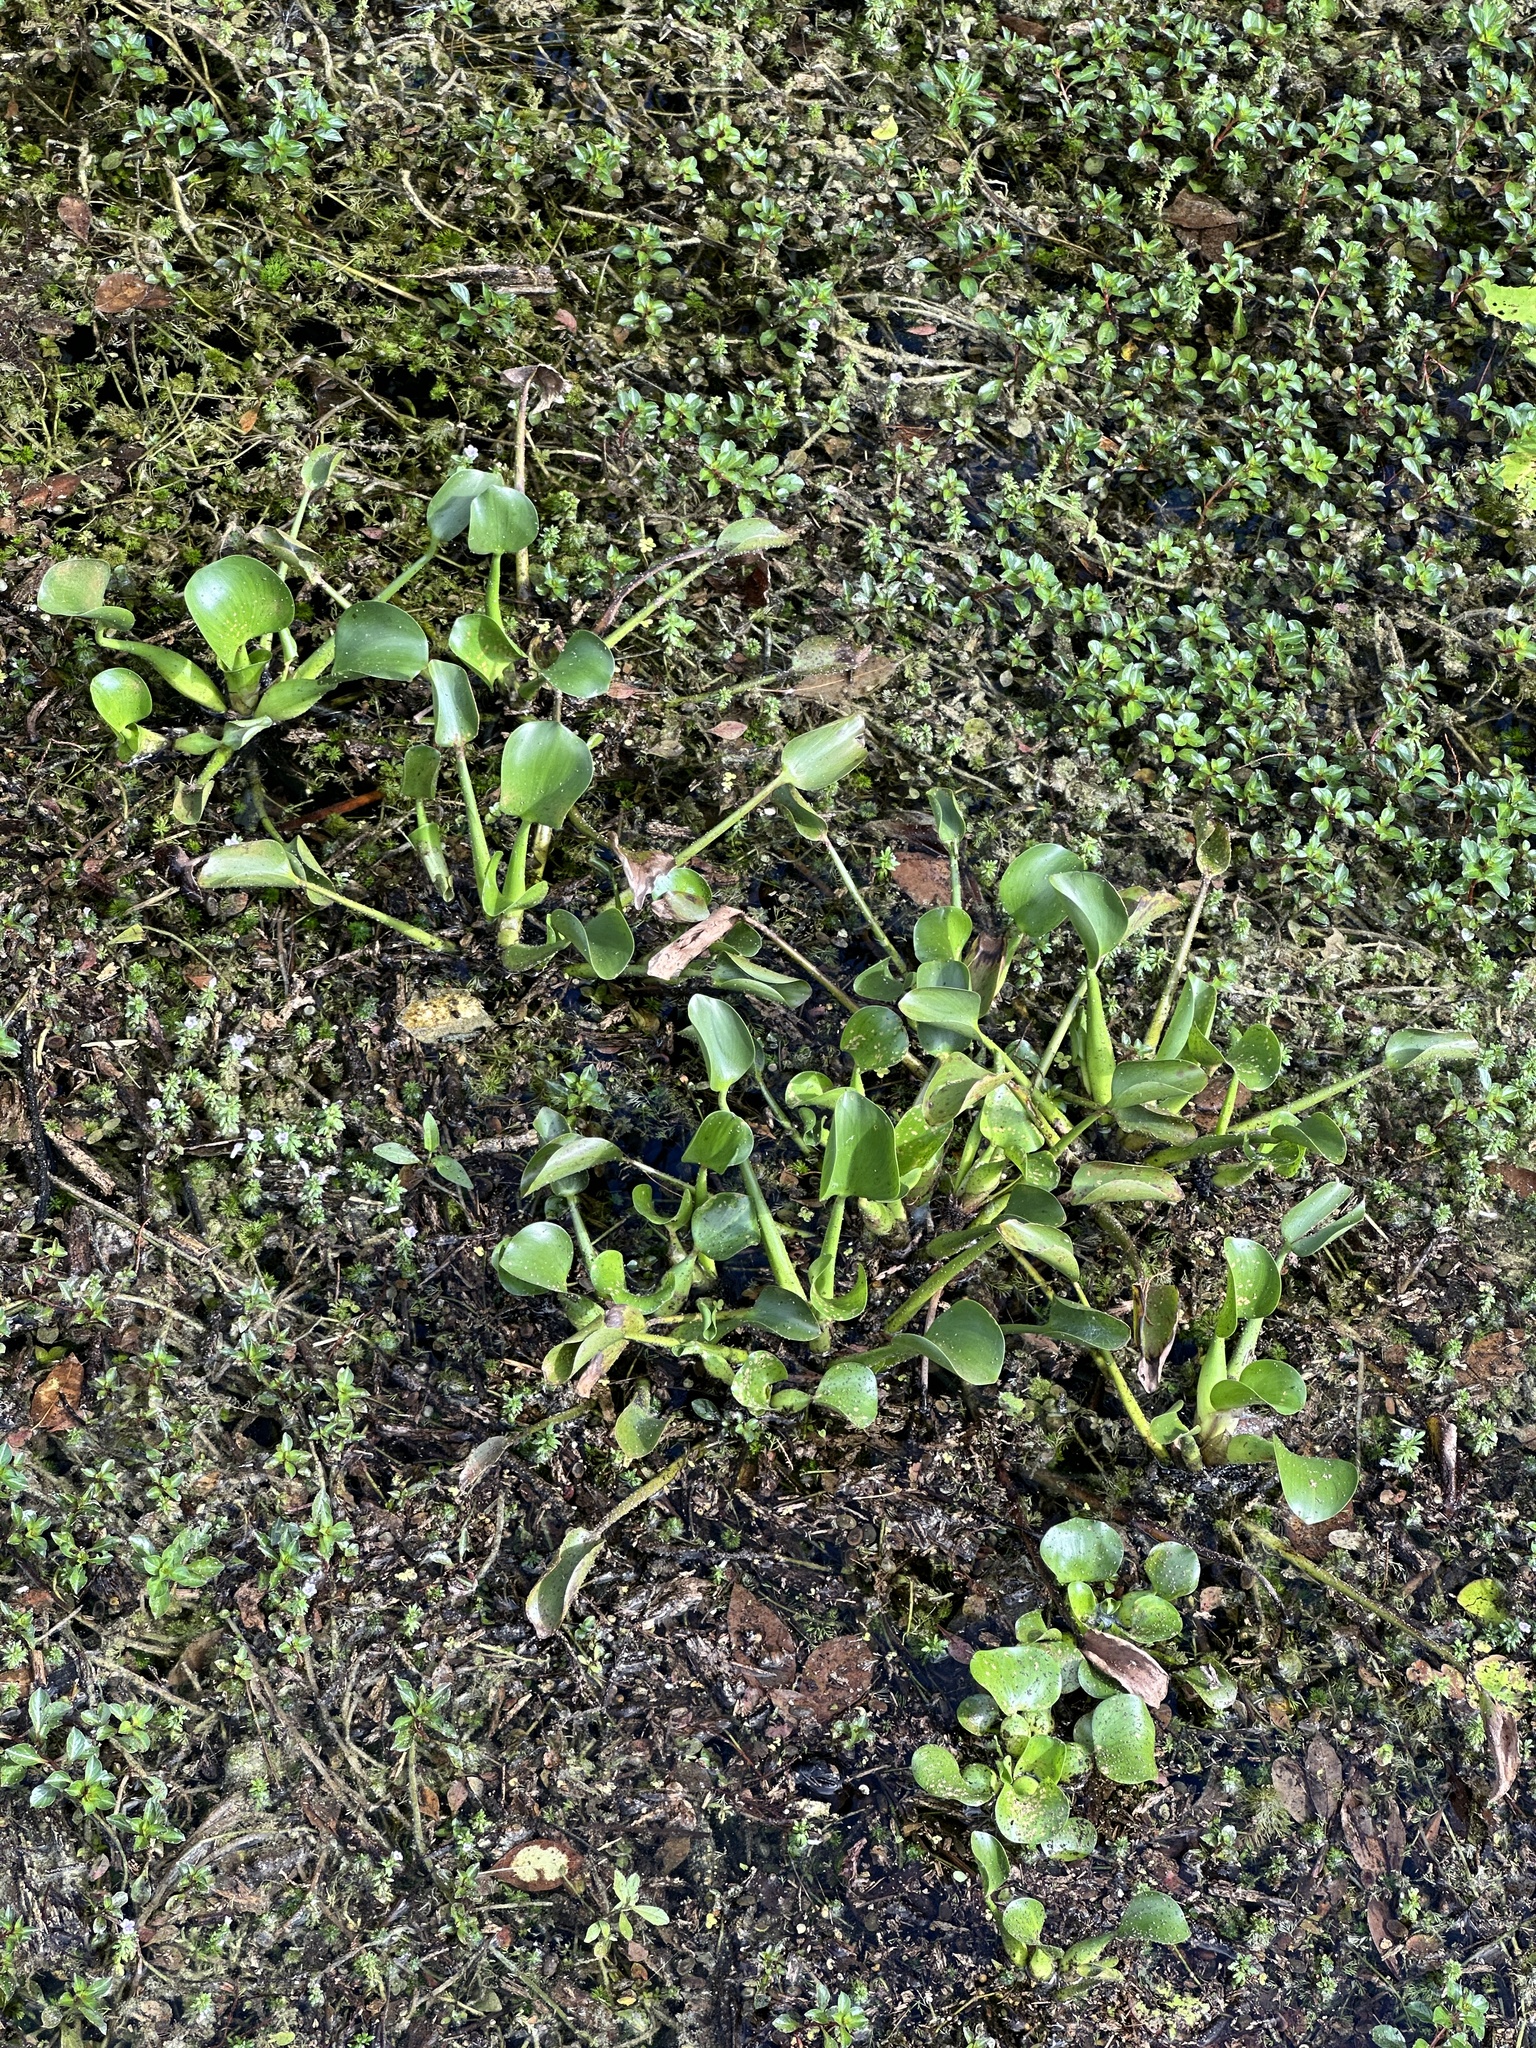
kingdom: Plantae
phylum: Tracheophyta
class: Liliopsida
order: Commelinales
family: Pontederiaceae
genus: Pontederia
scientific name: Pontederia crassipes
